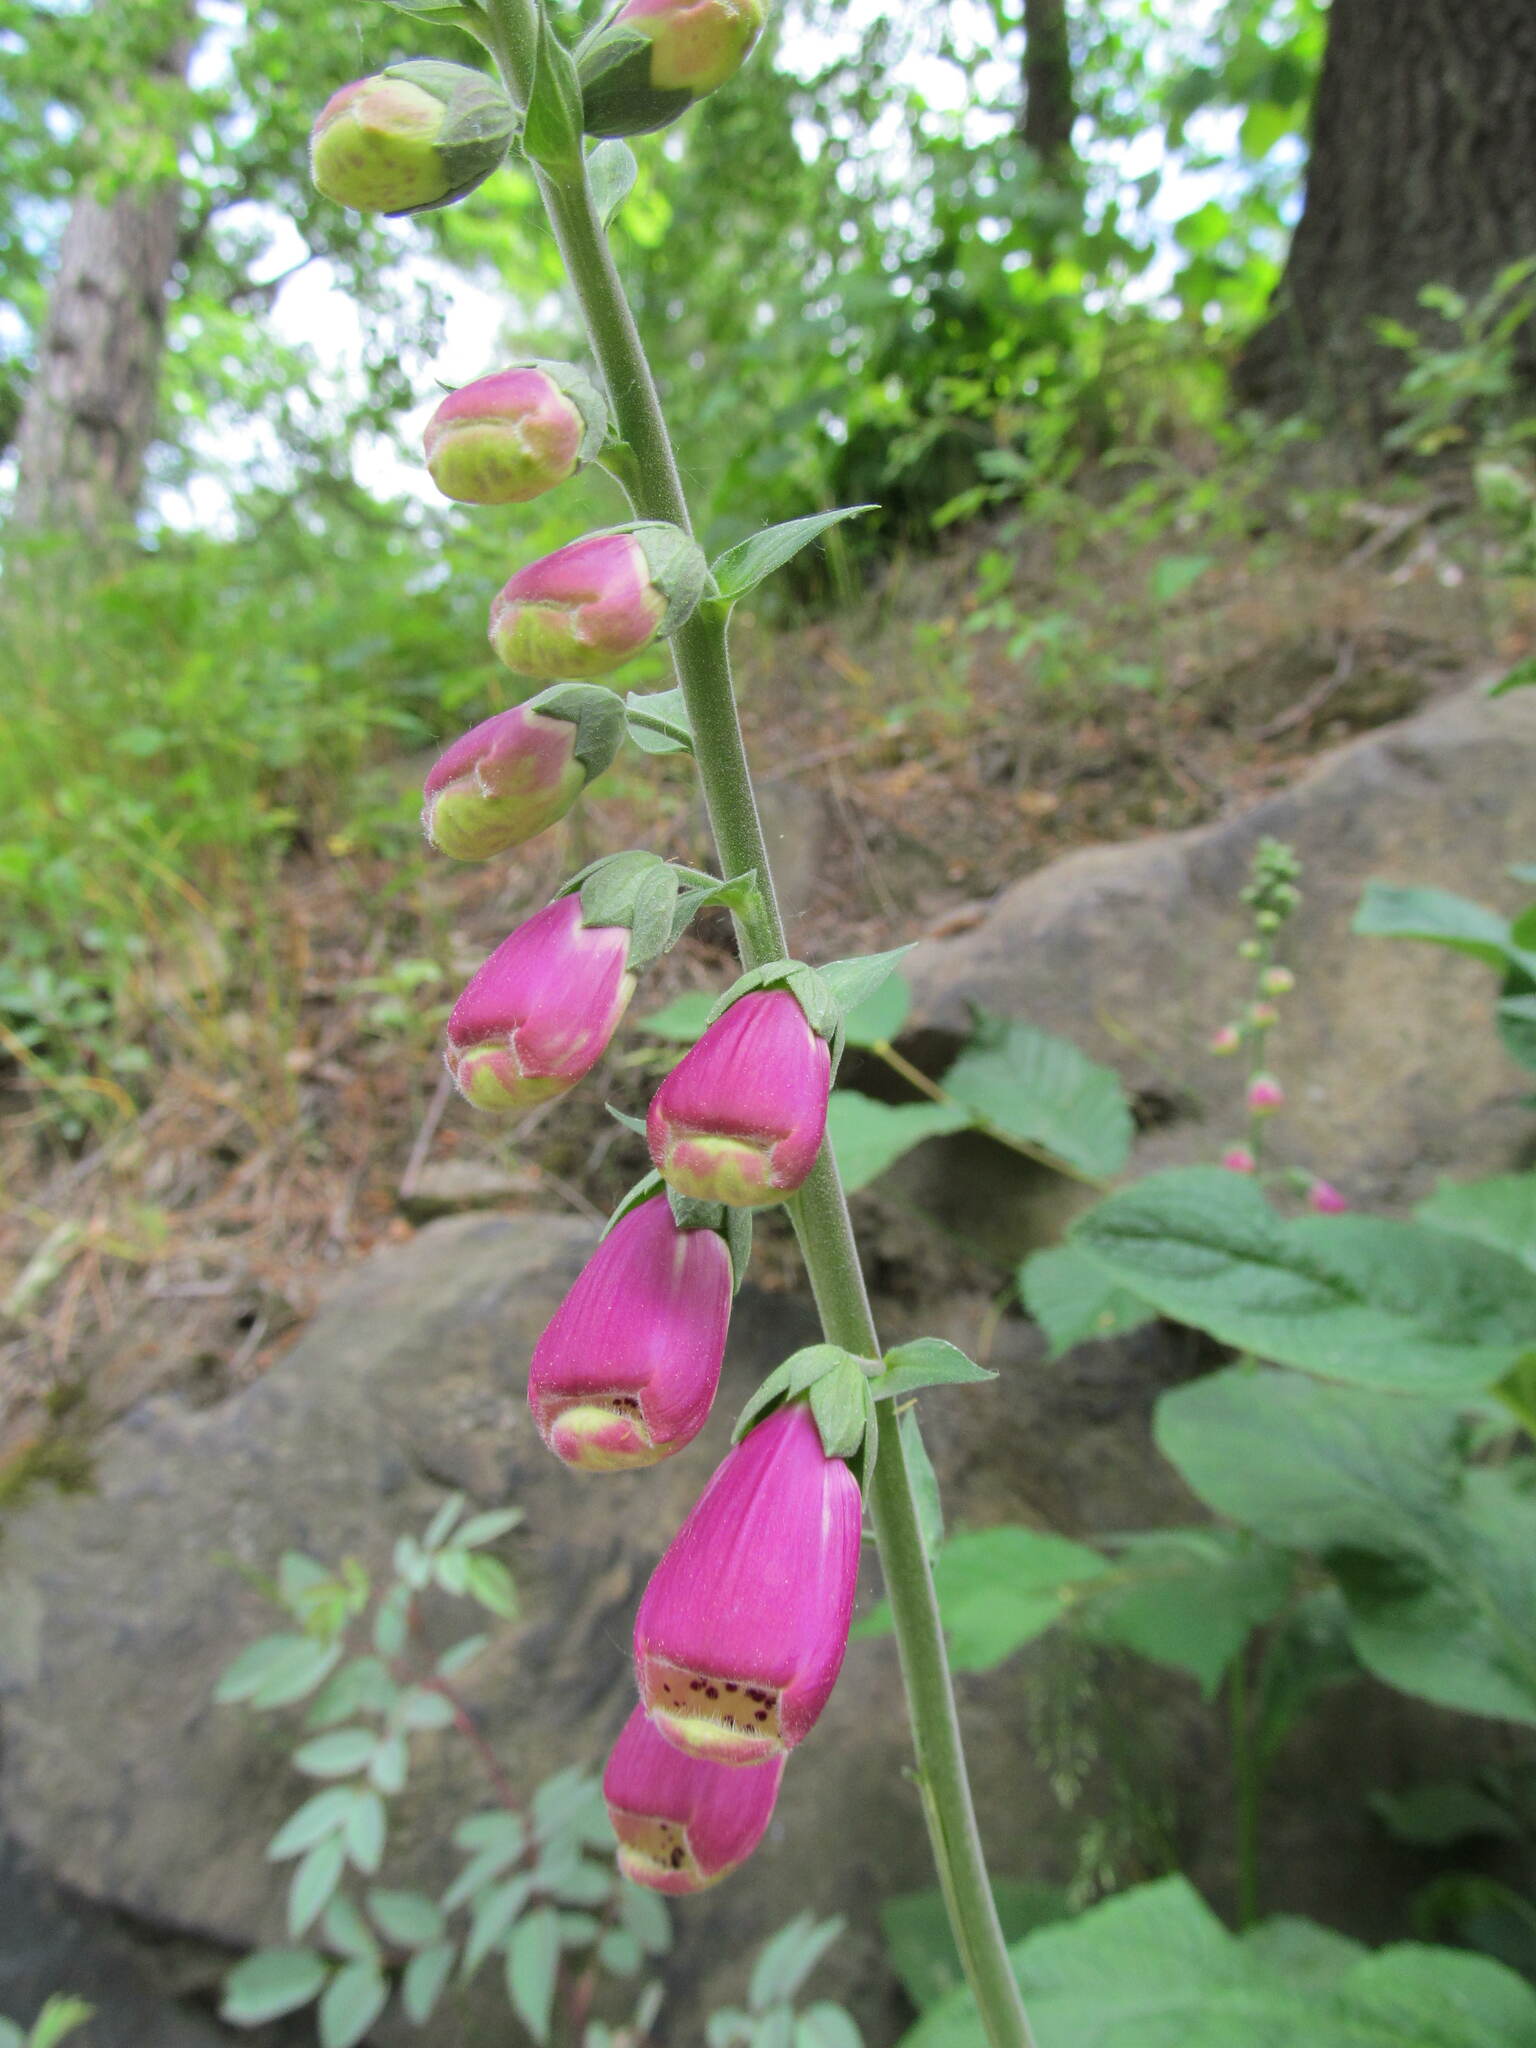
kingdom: Plantae
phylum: Tracheophyta
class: Magnoliopsida
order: Lamiales
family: Plantaginaceae
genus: Digitalis
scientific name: Digitalis purpurea
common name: Foxglove
